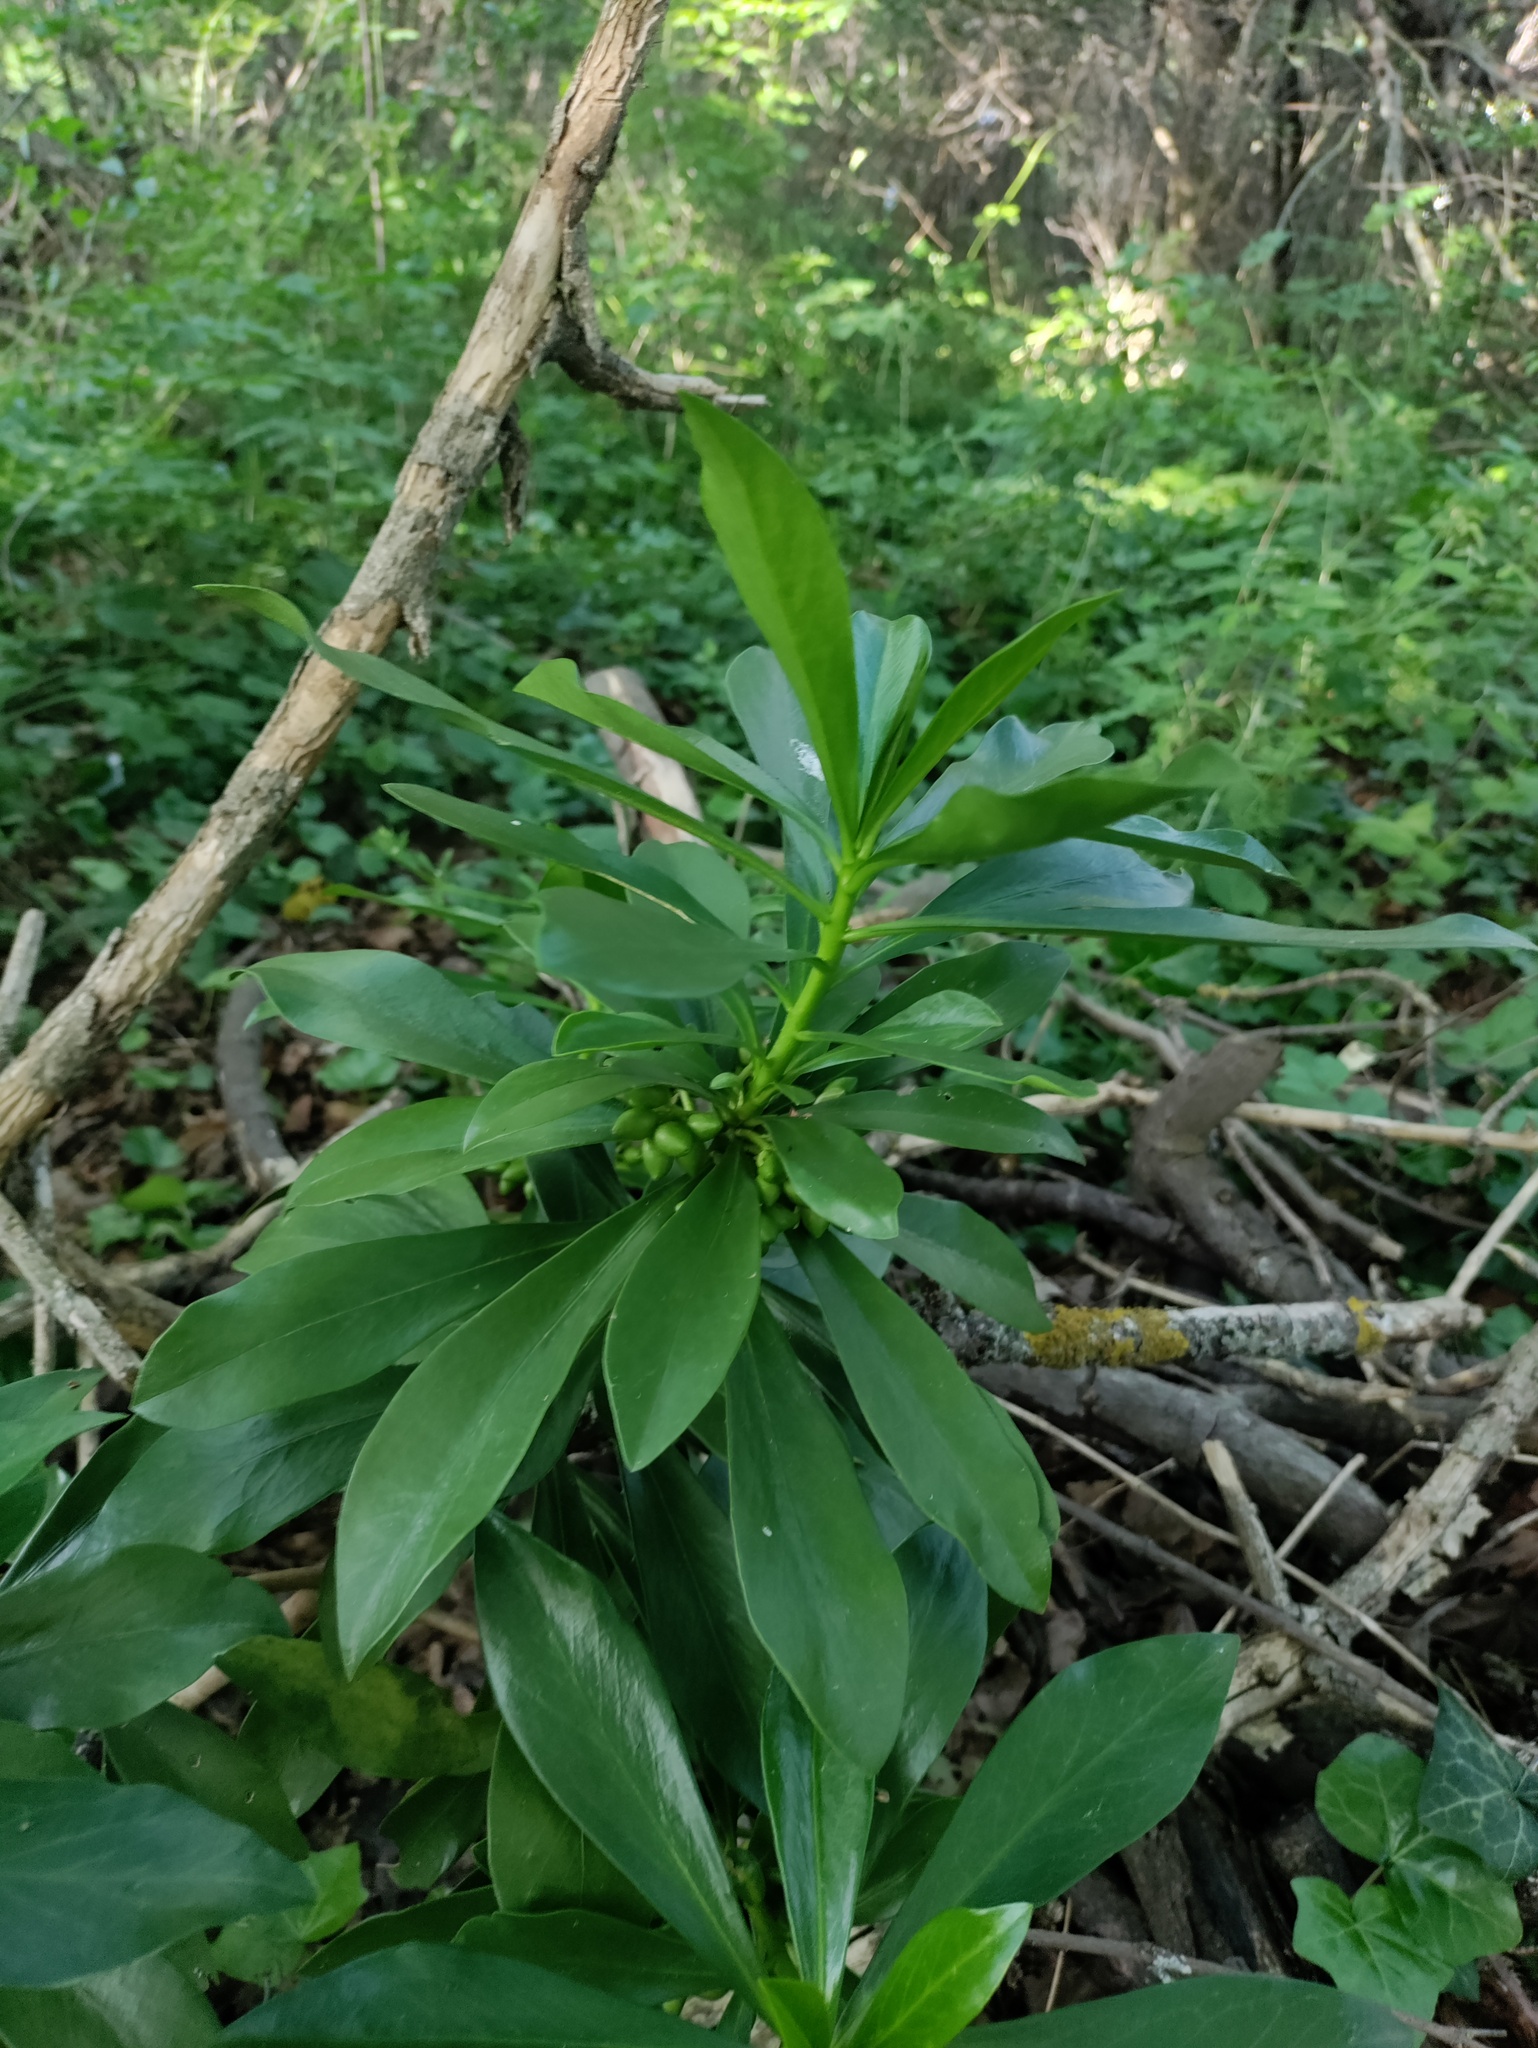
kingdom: Plantae
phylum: Tracheophyta
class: Magnoliopsida
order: Malvales
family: Thymelaeaceae
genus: Daphne
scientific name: Daphne laureola
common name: Spurge-laurel
